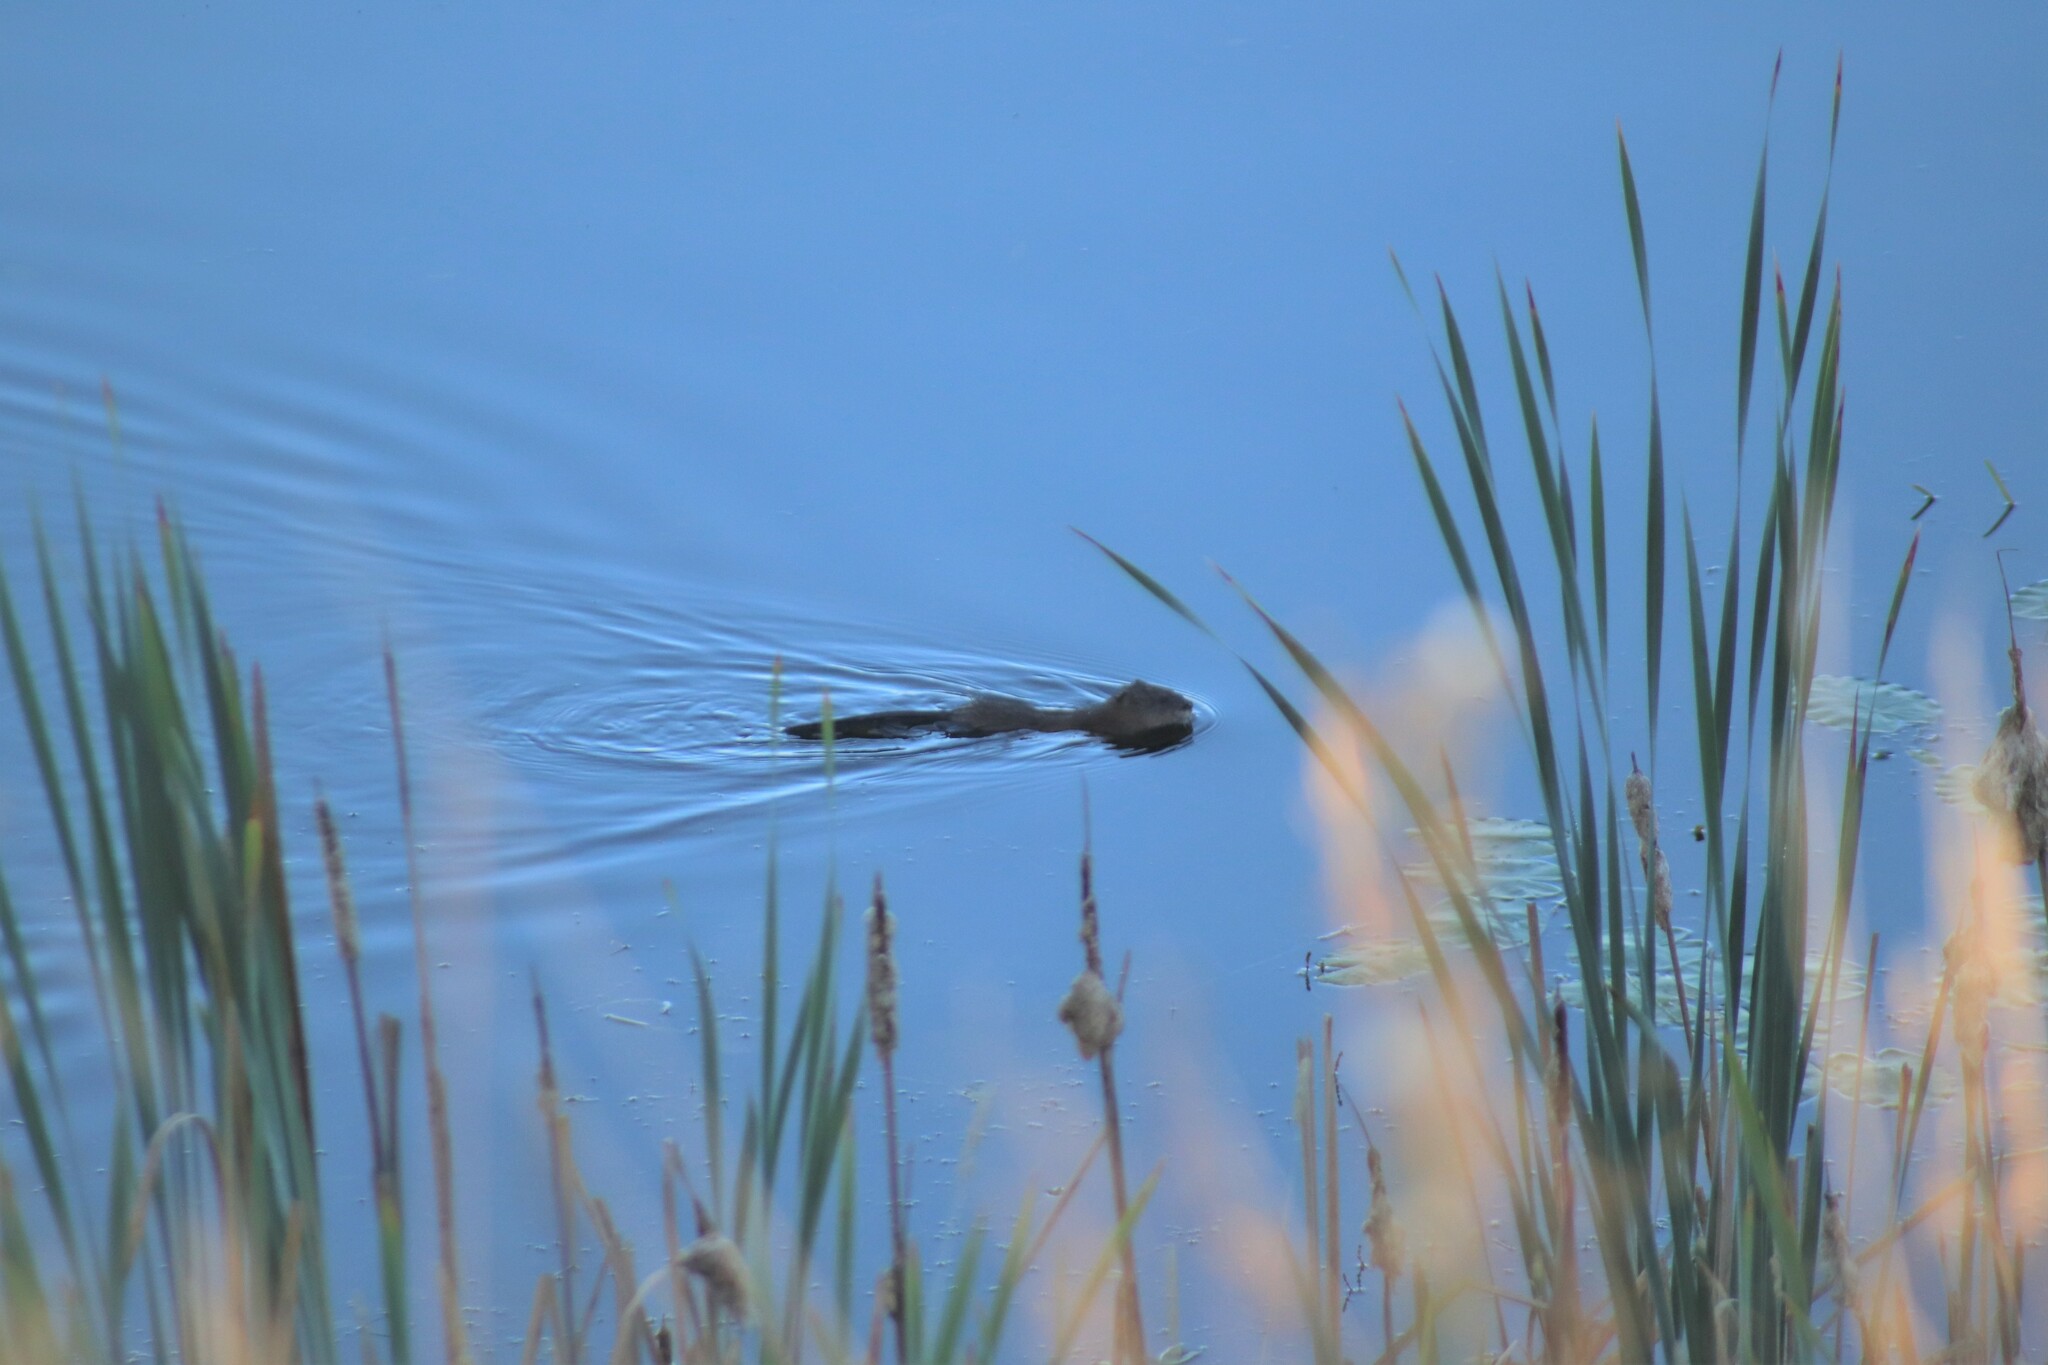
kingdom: Animalia
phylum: Chordata
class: Mammalia
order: Rodentia
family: Cricetidae
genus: Ondatra
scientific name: Ondatra zibethicus
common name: Muskrat
